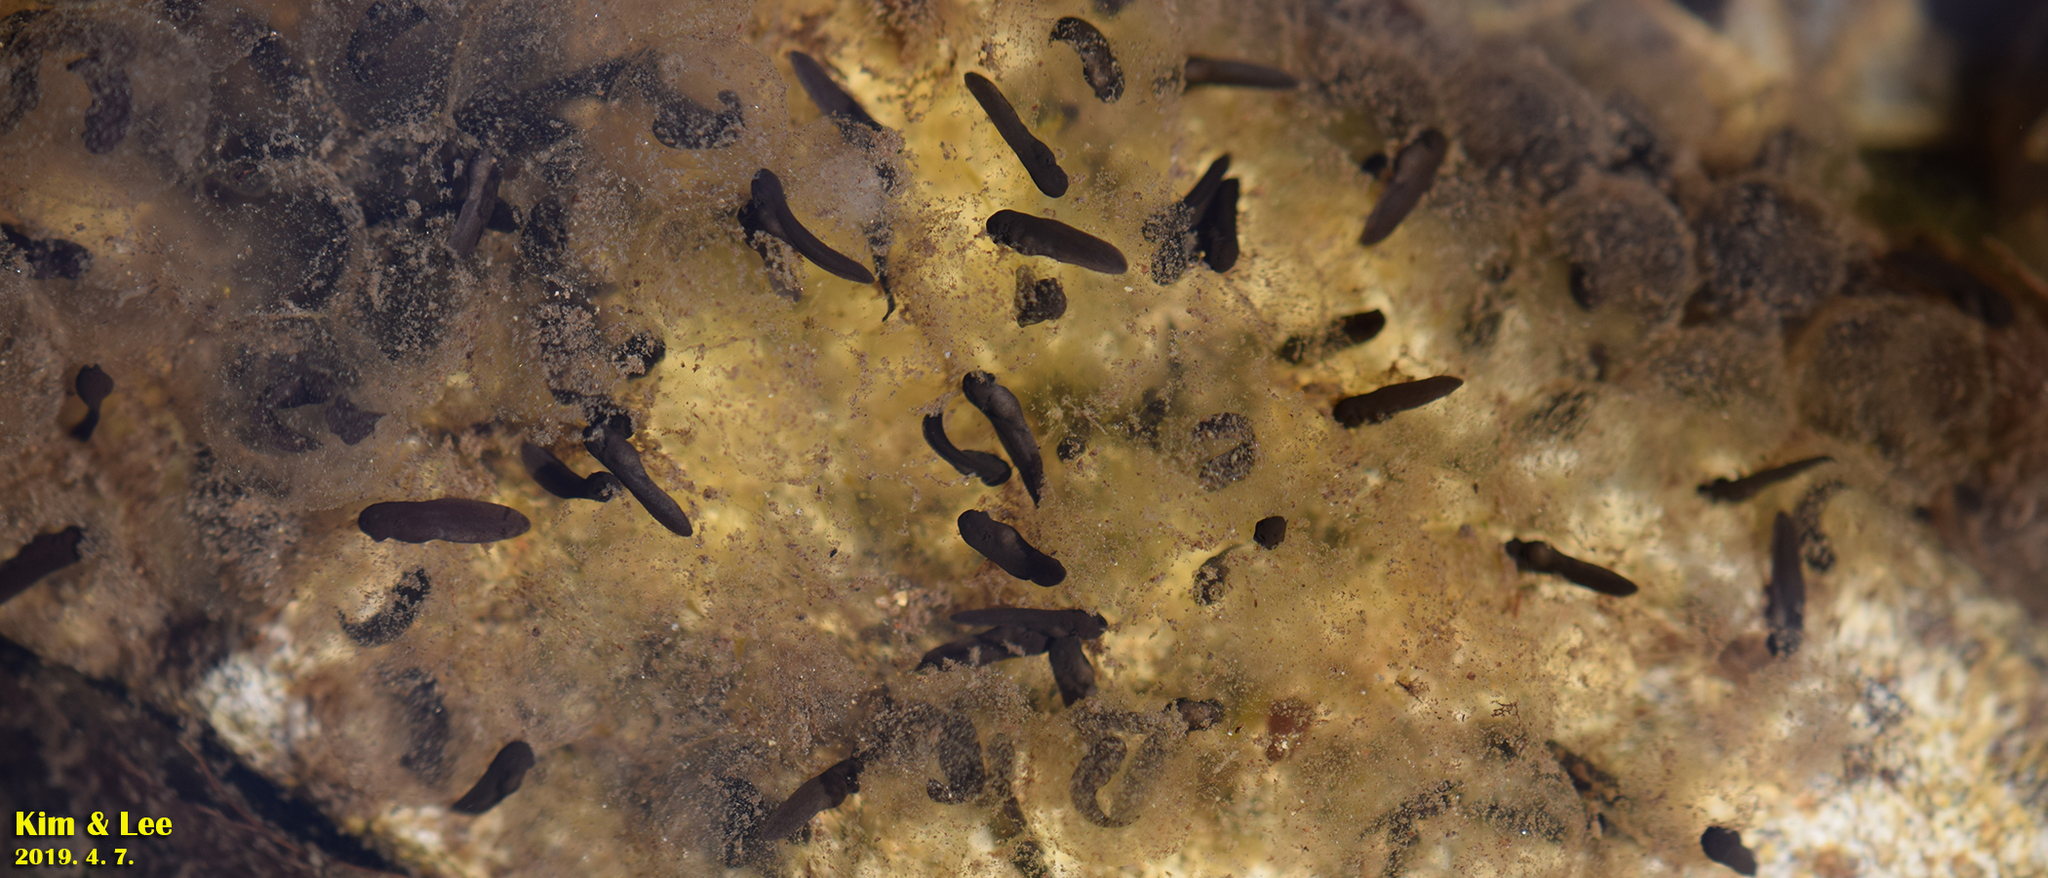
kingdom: Animalia
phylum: Chordata
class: Amphibia
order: Anura
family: Ranidae
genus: Rana
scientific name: Rana huanrenensis
